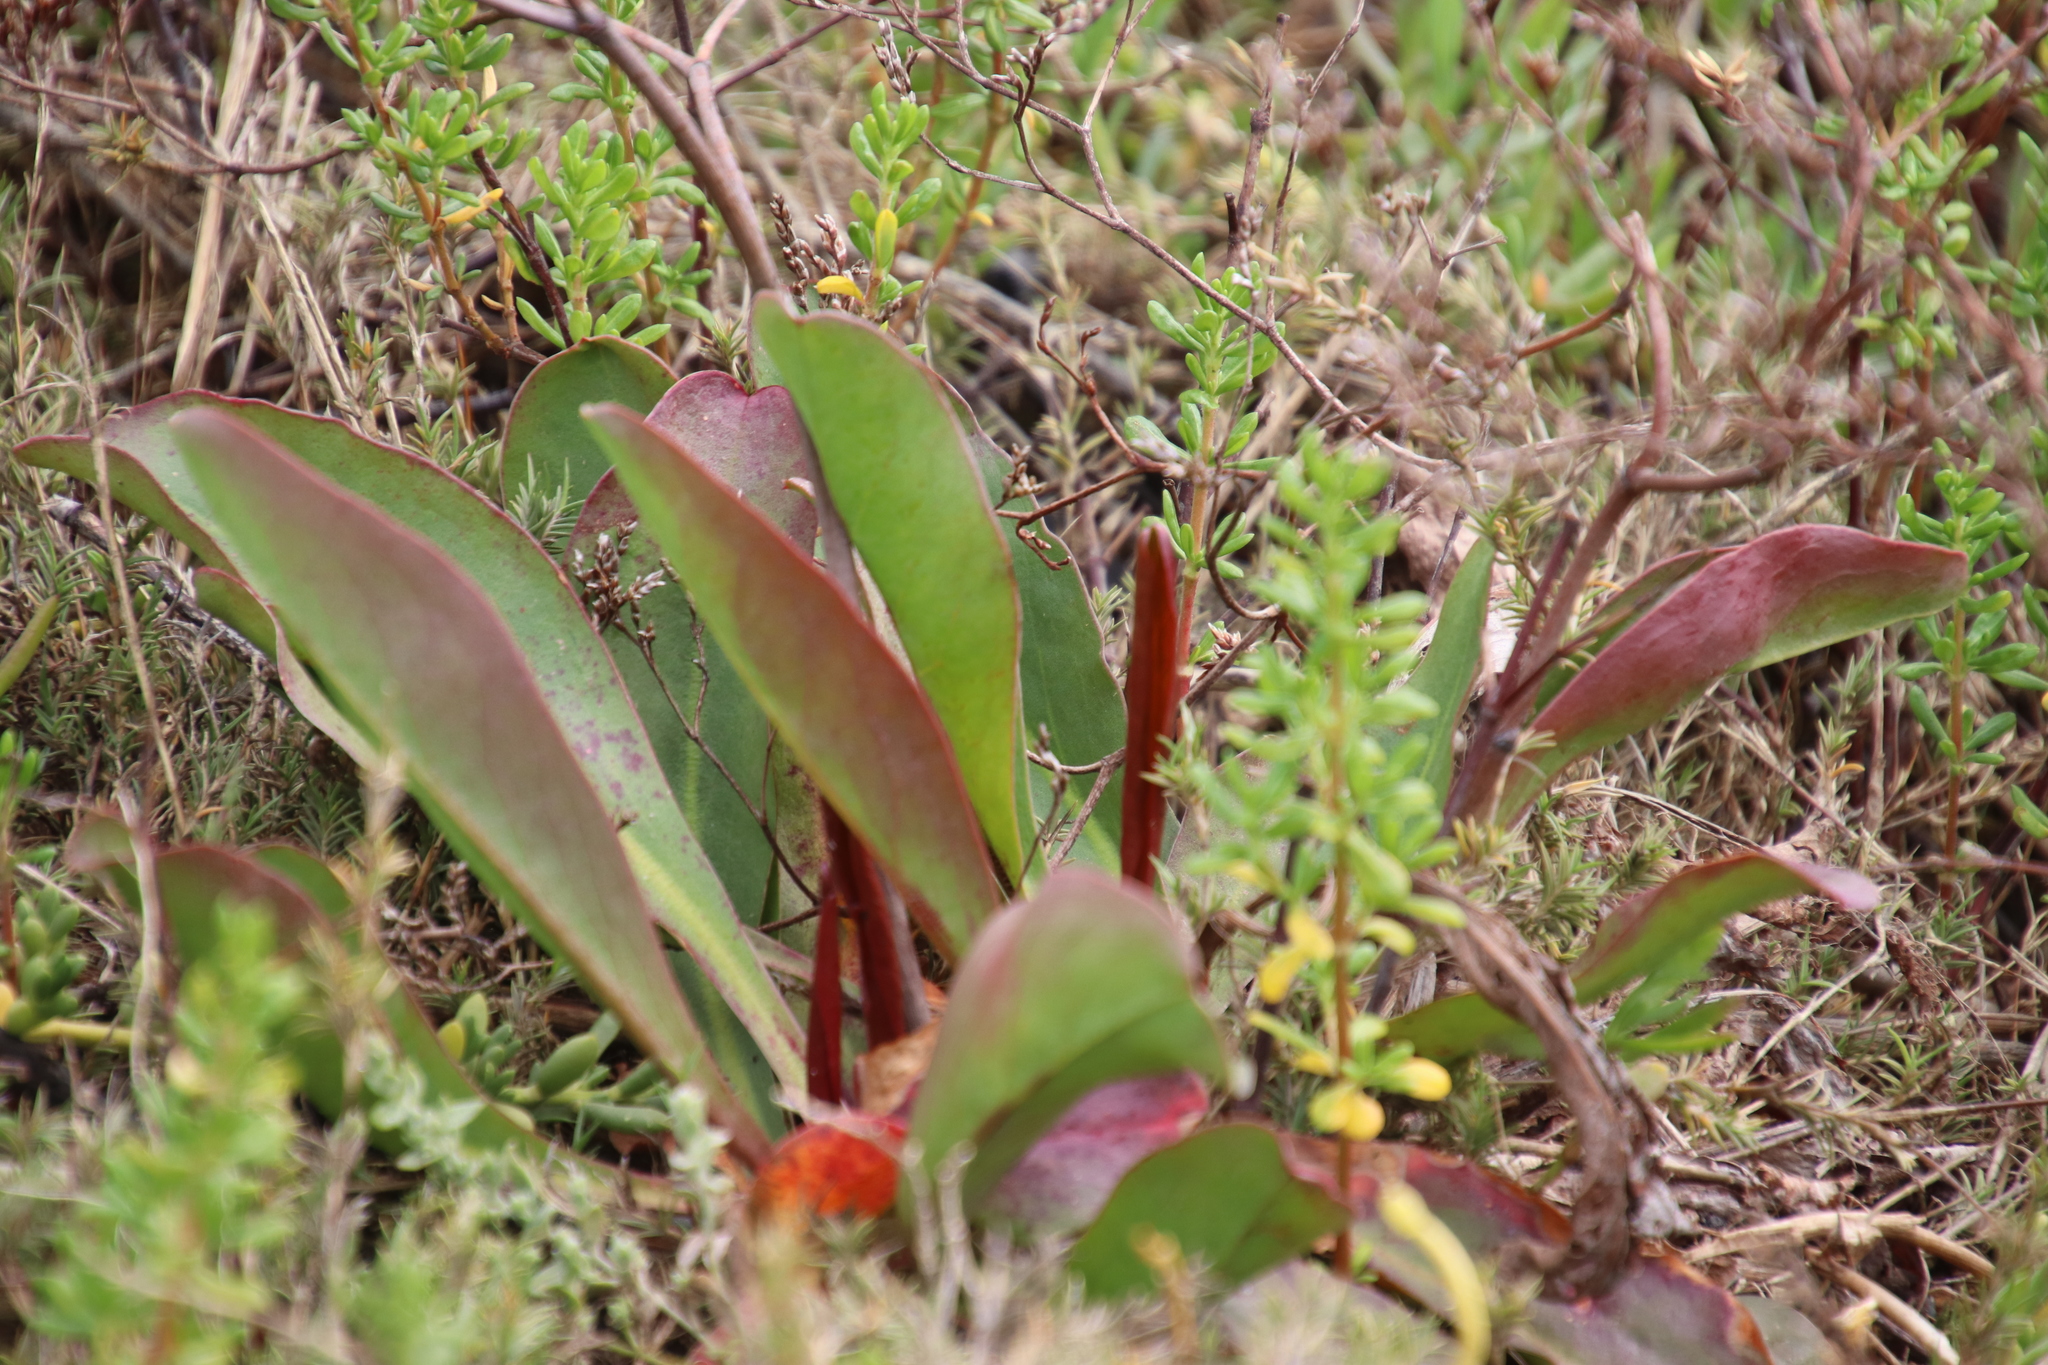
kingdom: Plantae
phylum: Tracheophyta
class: Magnoliopsida
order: Caryophyllales
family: Plumbaginaceae
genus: Limonium
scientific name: Limonium californicum
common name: Marsh-rosemary
